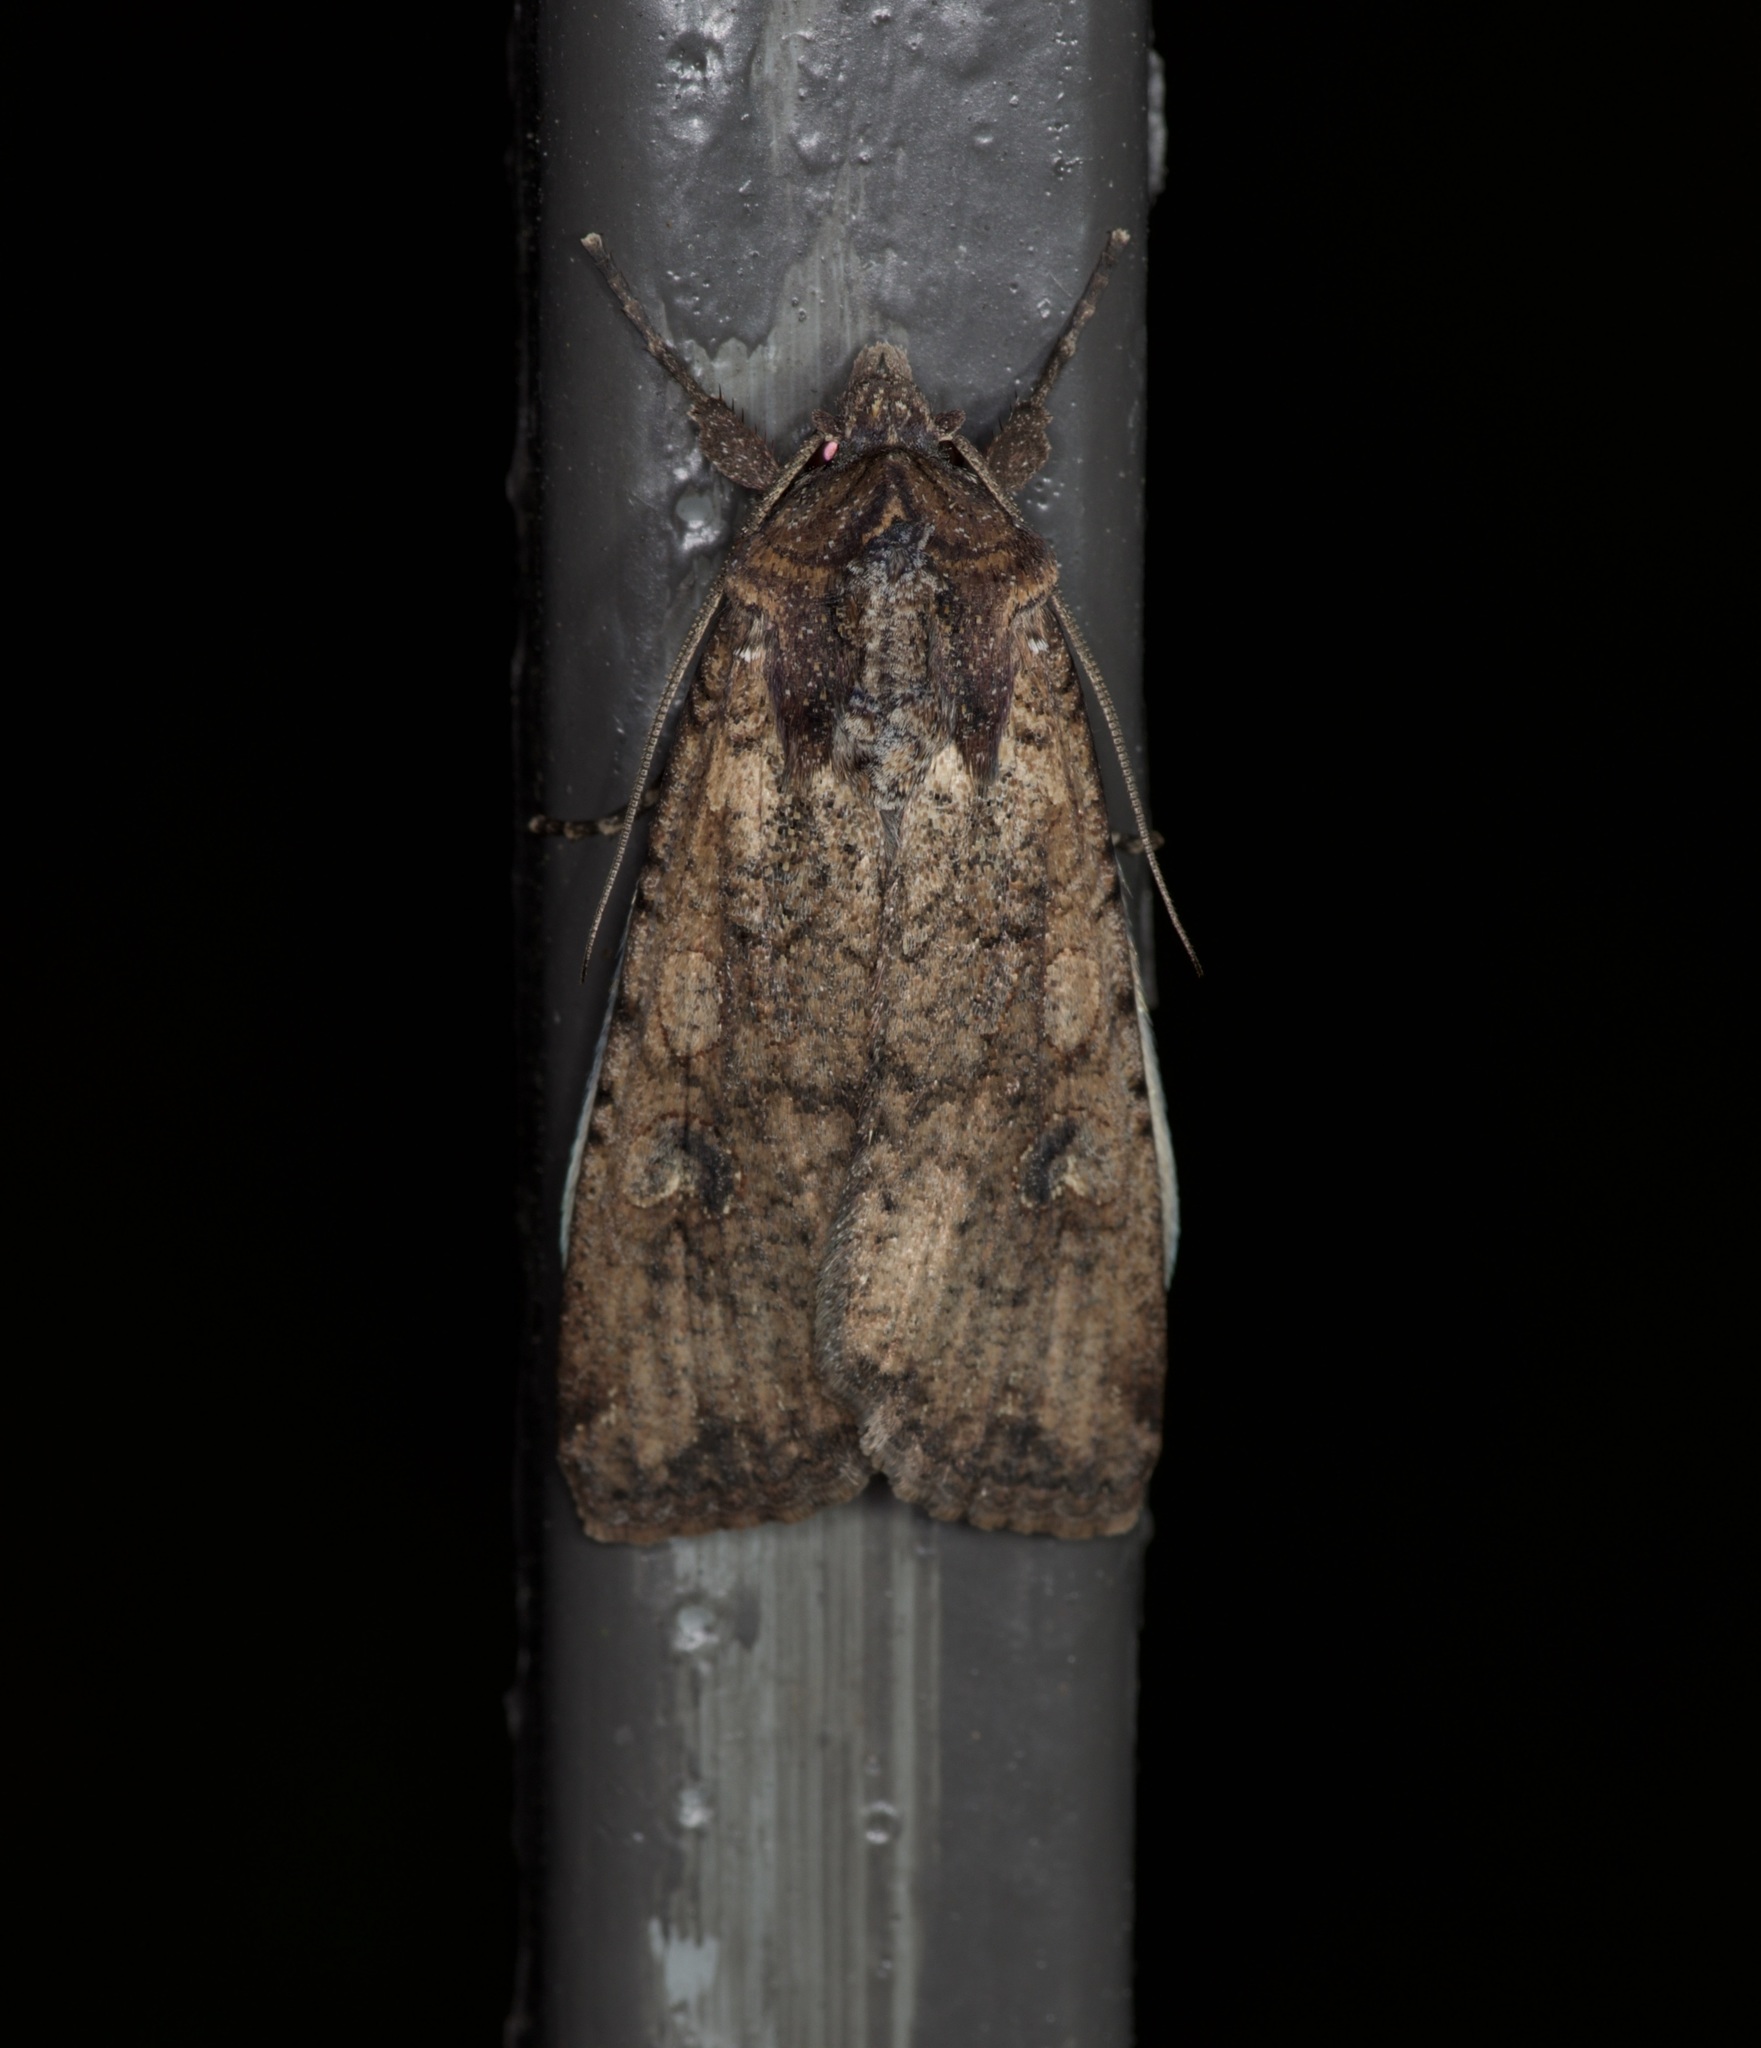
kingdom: Animalia
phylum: Arthropoda
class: Insecta
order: Lepidoptera
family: Noctuidae
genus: Peridroma
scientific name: Peridroma saucia
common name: Pearly underwing
